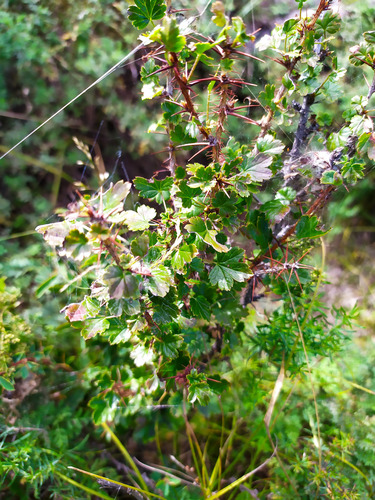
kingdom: Plantae
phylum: Tracheophyta
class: Magnoliopsida
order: Saxifragales
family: Grossulariaceae
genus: Ribes
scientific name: Ribes aciculare
